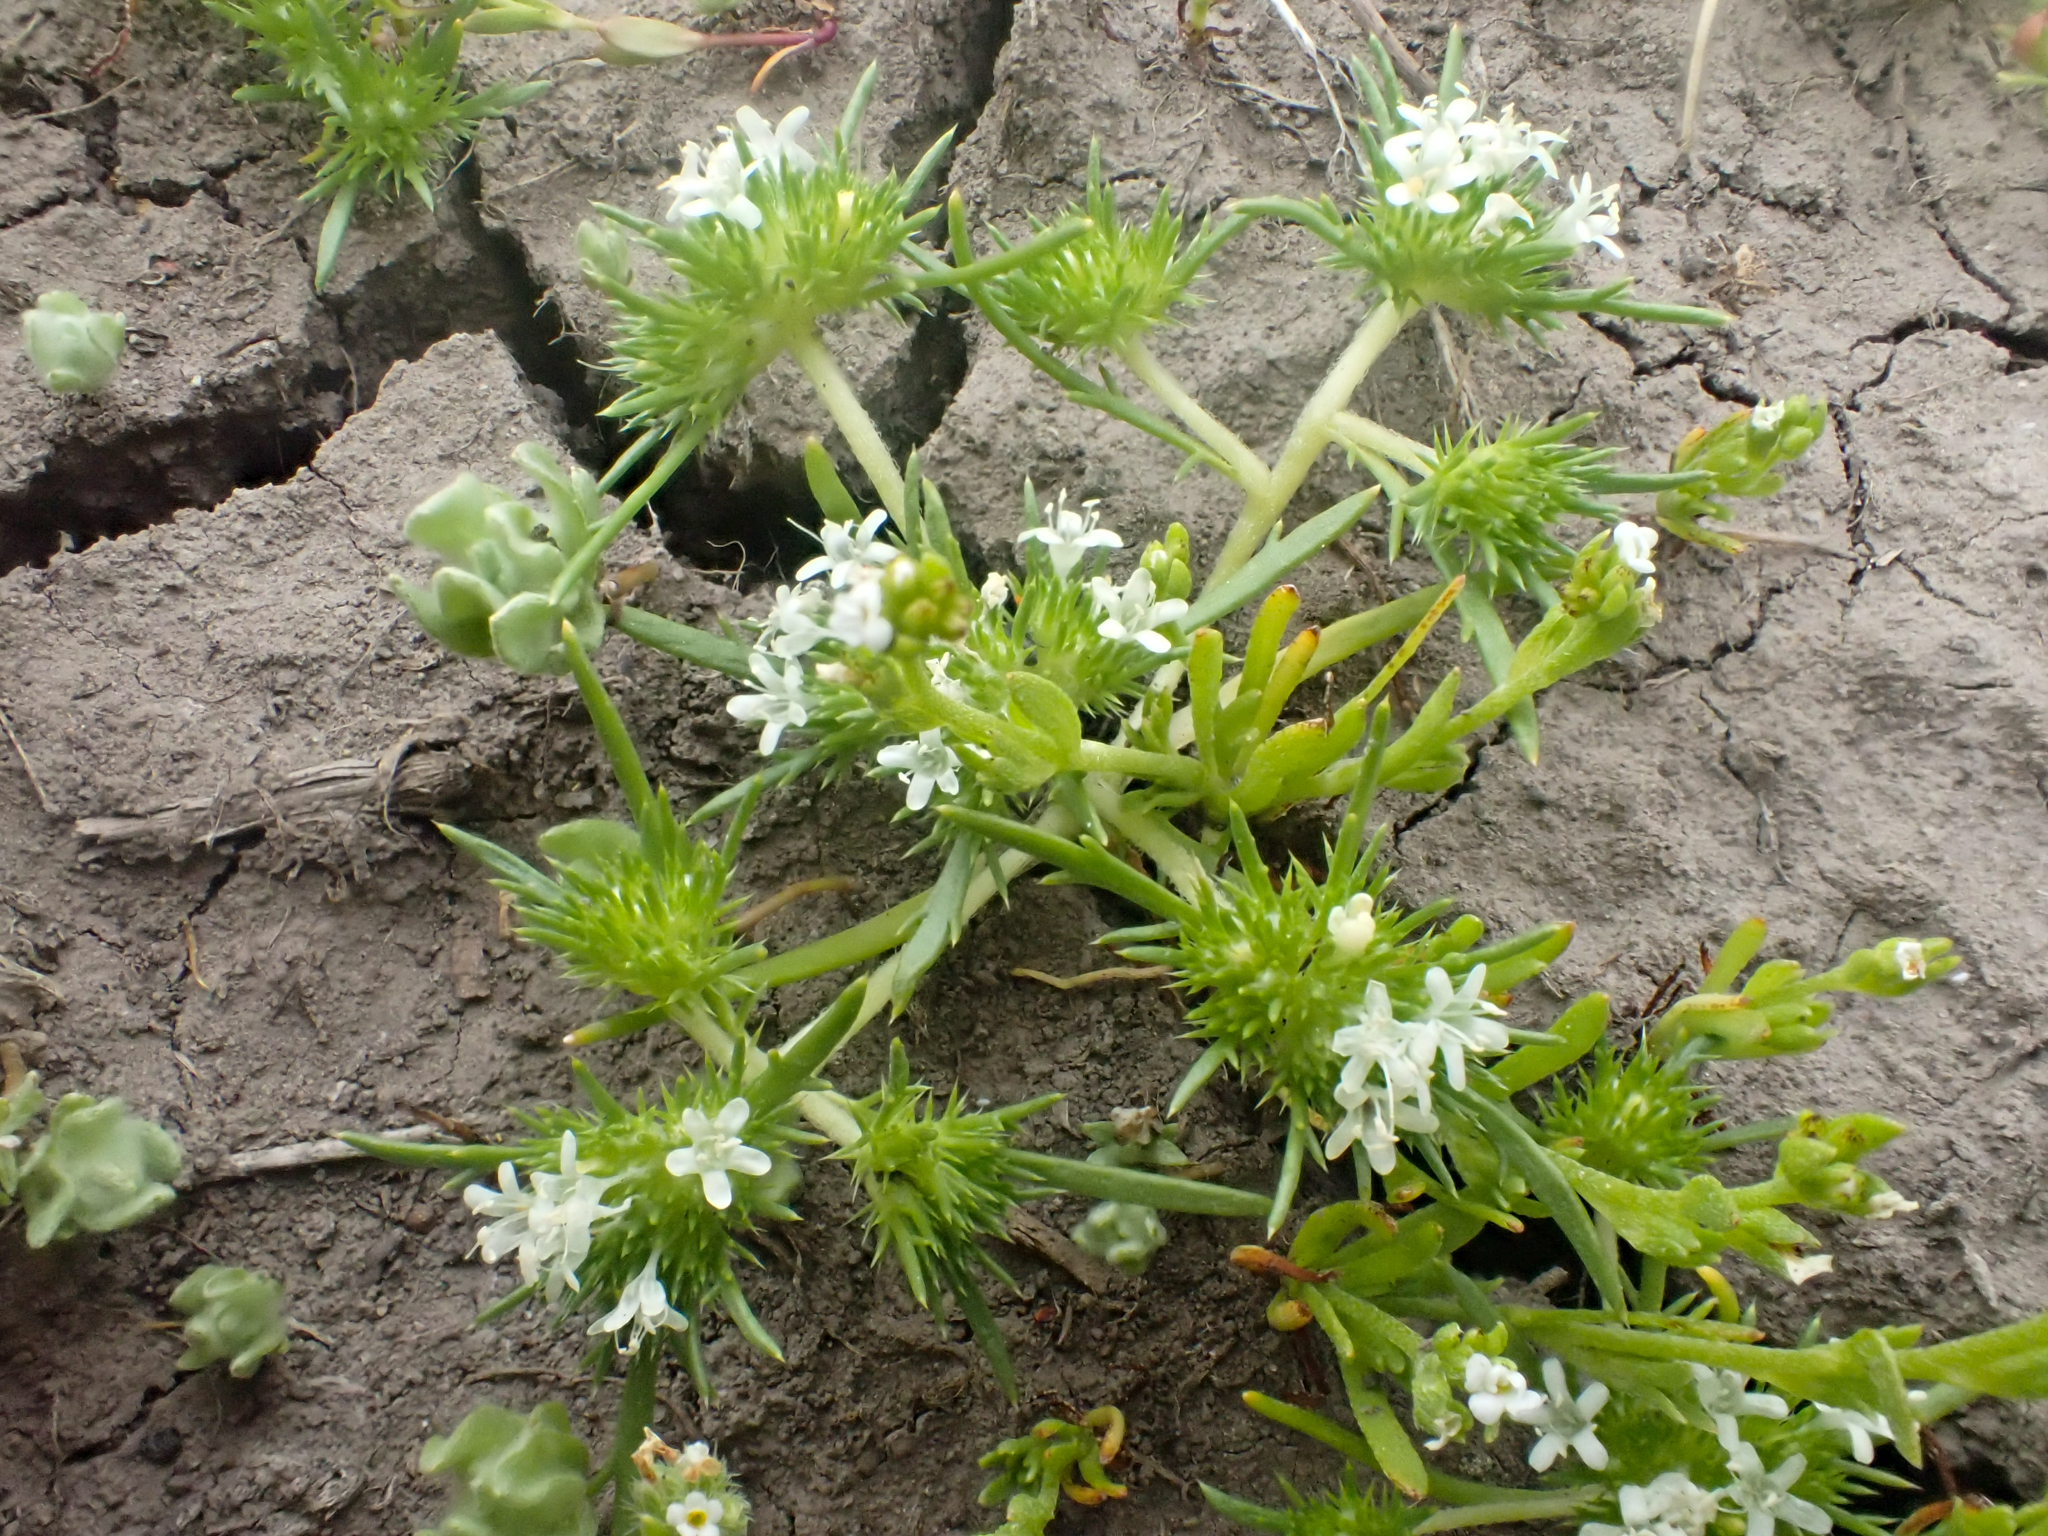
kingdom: Plantae
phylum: Tracheophyta
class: Magnoliopsida
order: Ericales
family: Polemoniaceae
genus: Navarretia
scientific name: Navarretia leucocephala
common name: White-flowered navarretia
